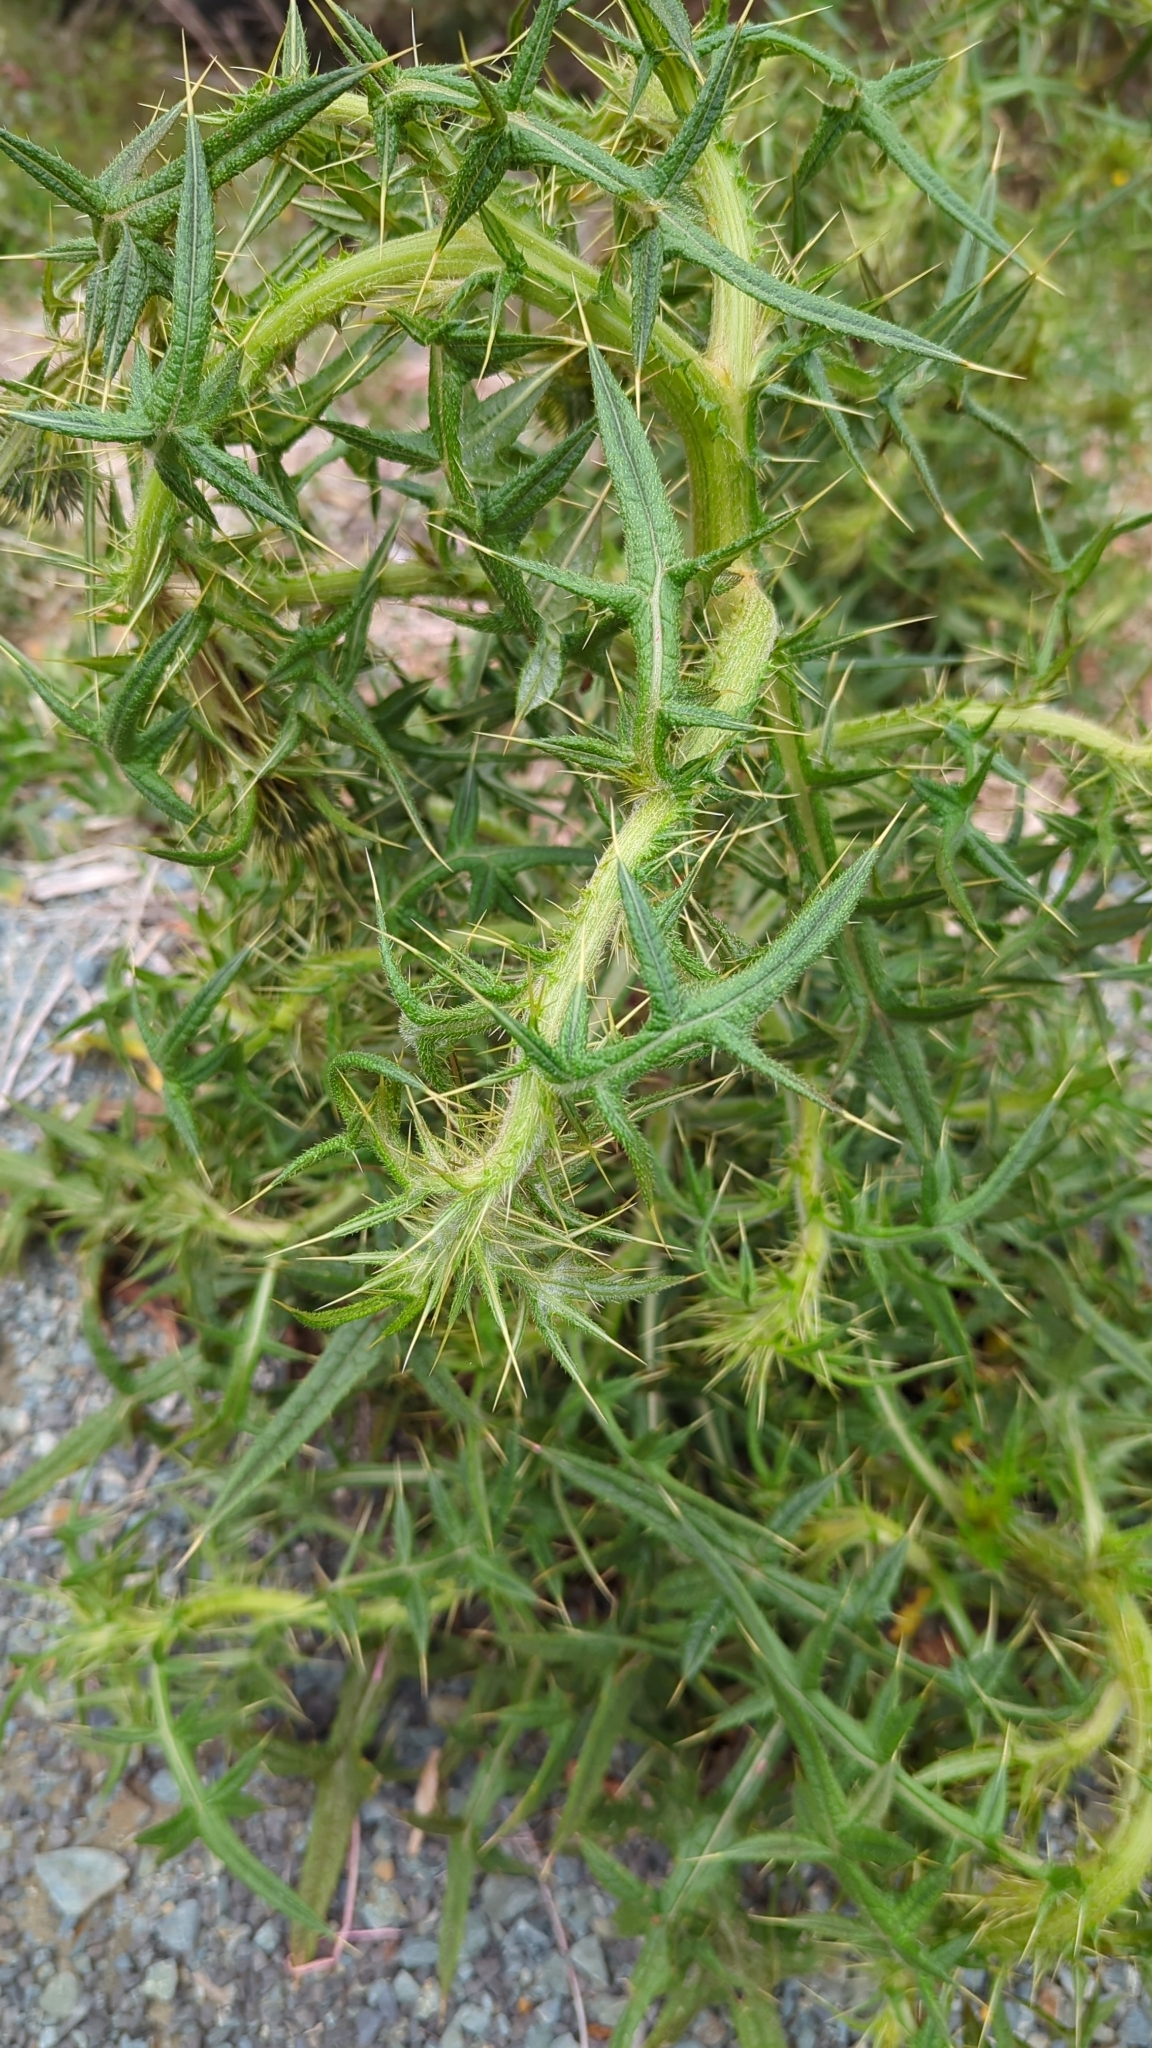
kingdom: Plantae
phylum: Tracheophyta
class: Magnoliopsida
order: Asterales
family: Asteraceae
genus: Cirsium
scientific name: Cirsium vulgare
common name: Bull thistle
